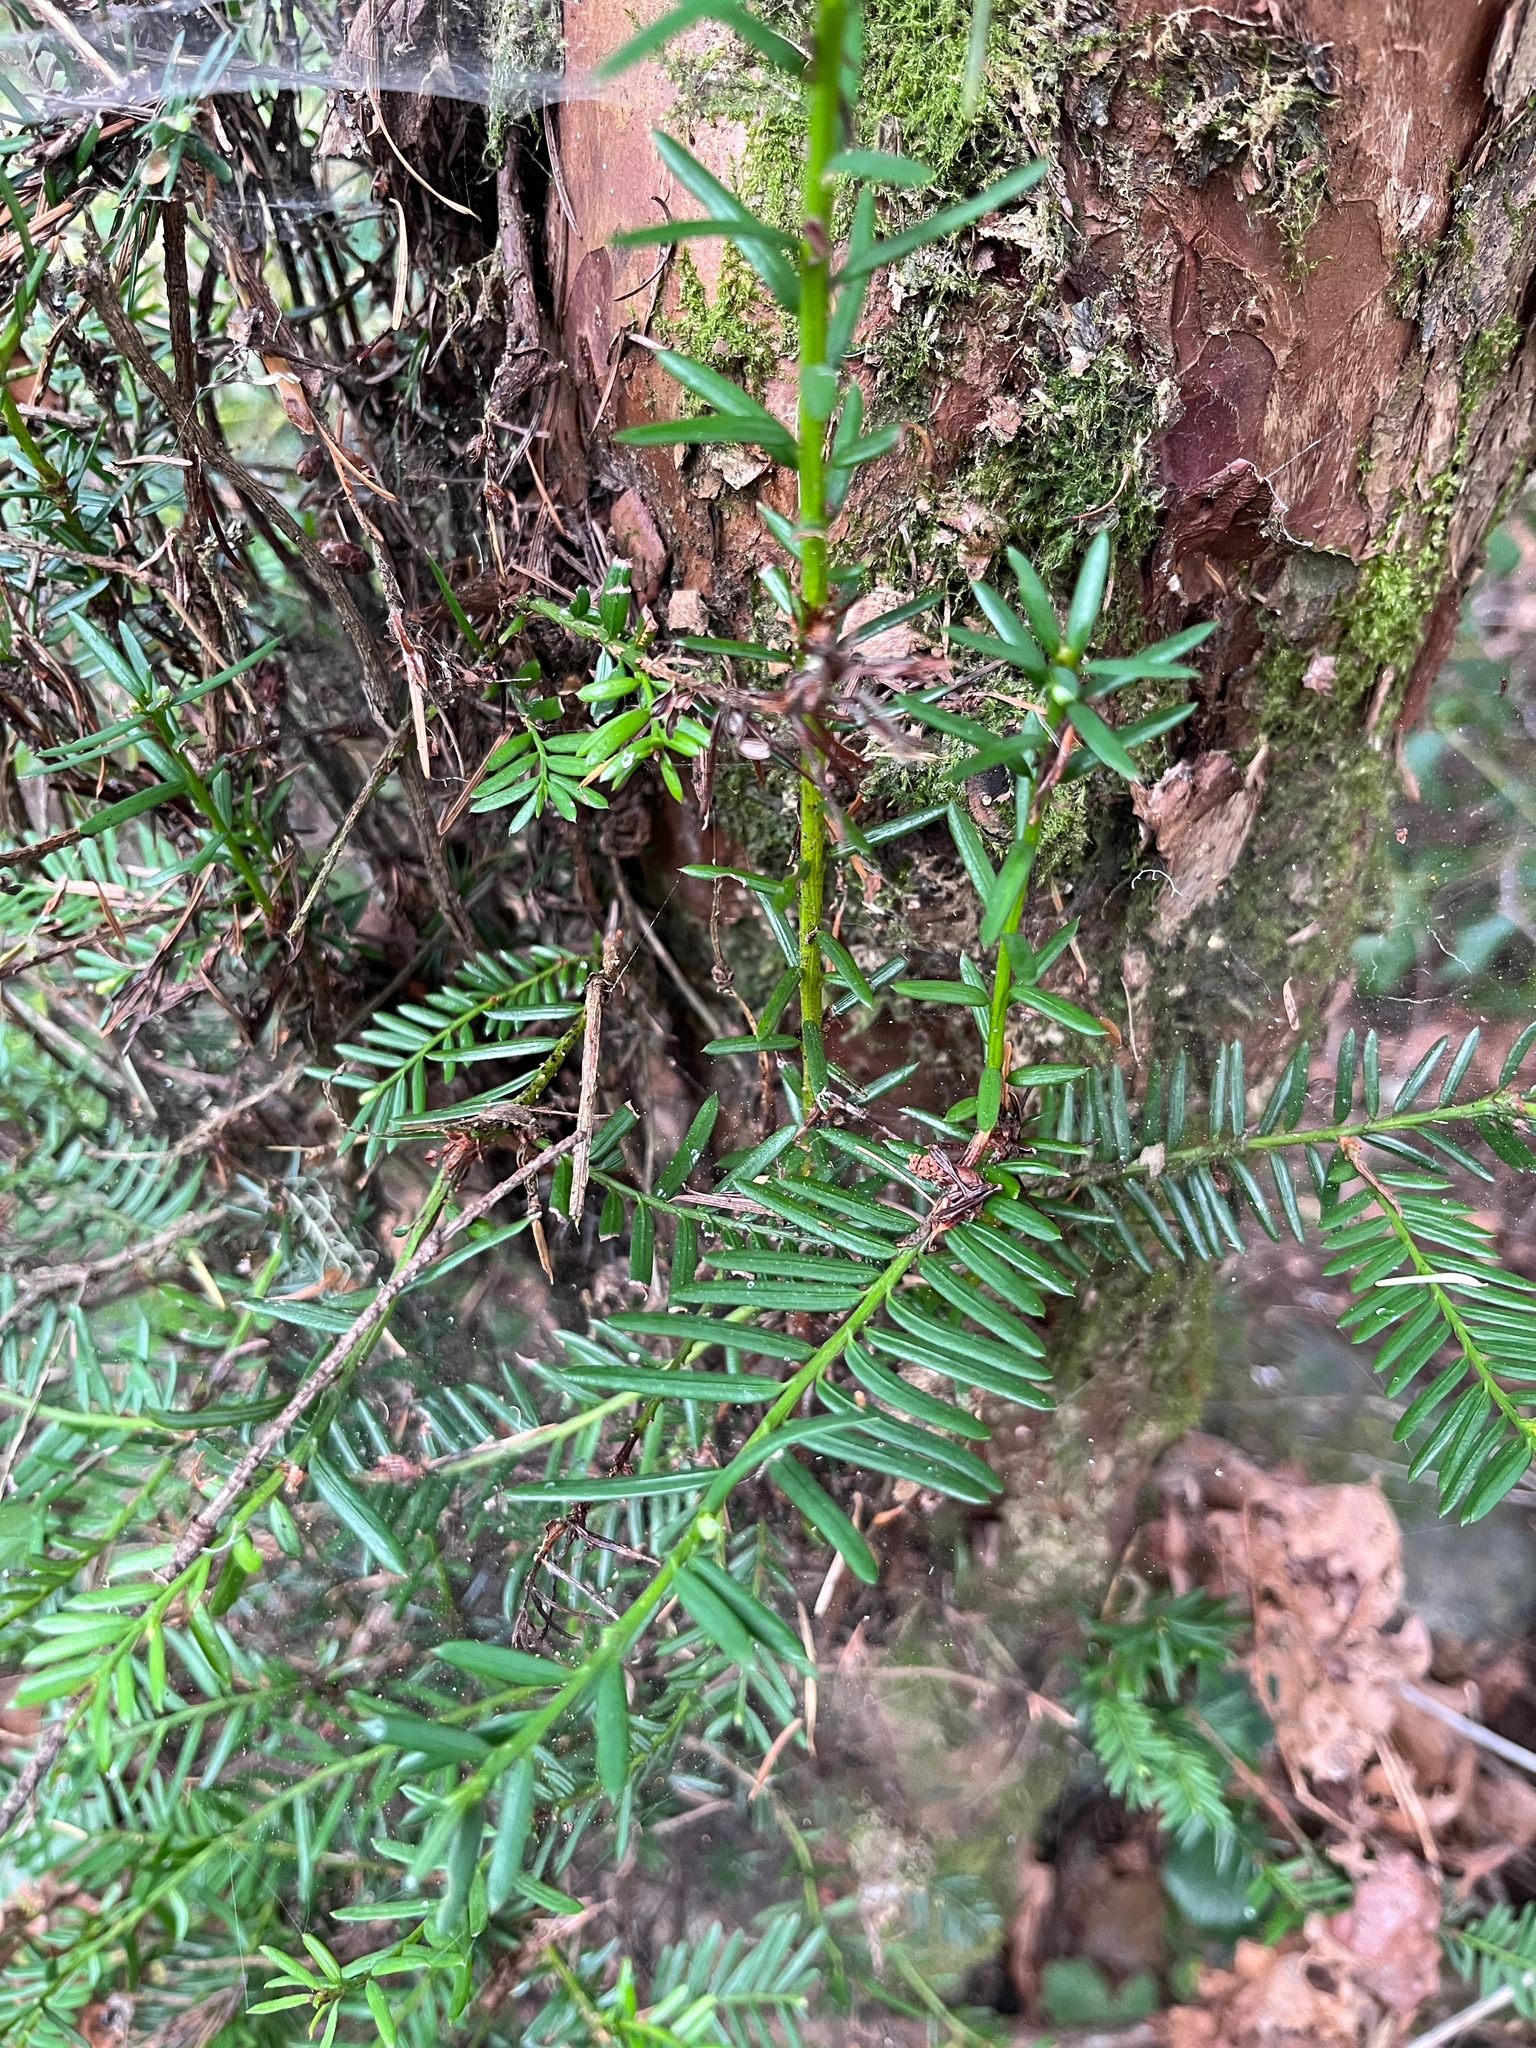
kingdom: Plantae
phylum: Tracheophyta
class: Pinopsida
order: Pinales
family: Taxaceae
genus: Taxus
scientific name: Taxus brevifolia
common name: Pacific yew
